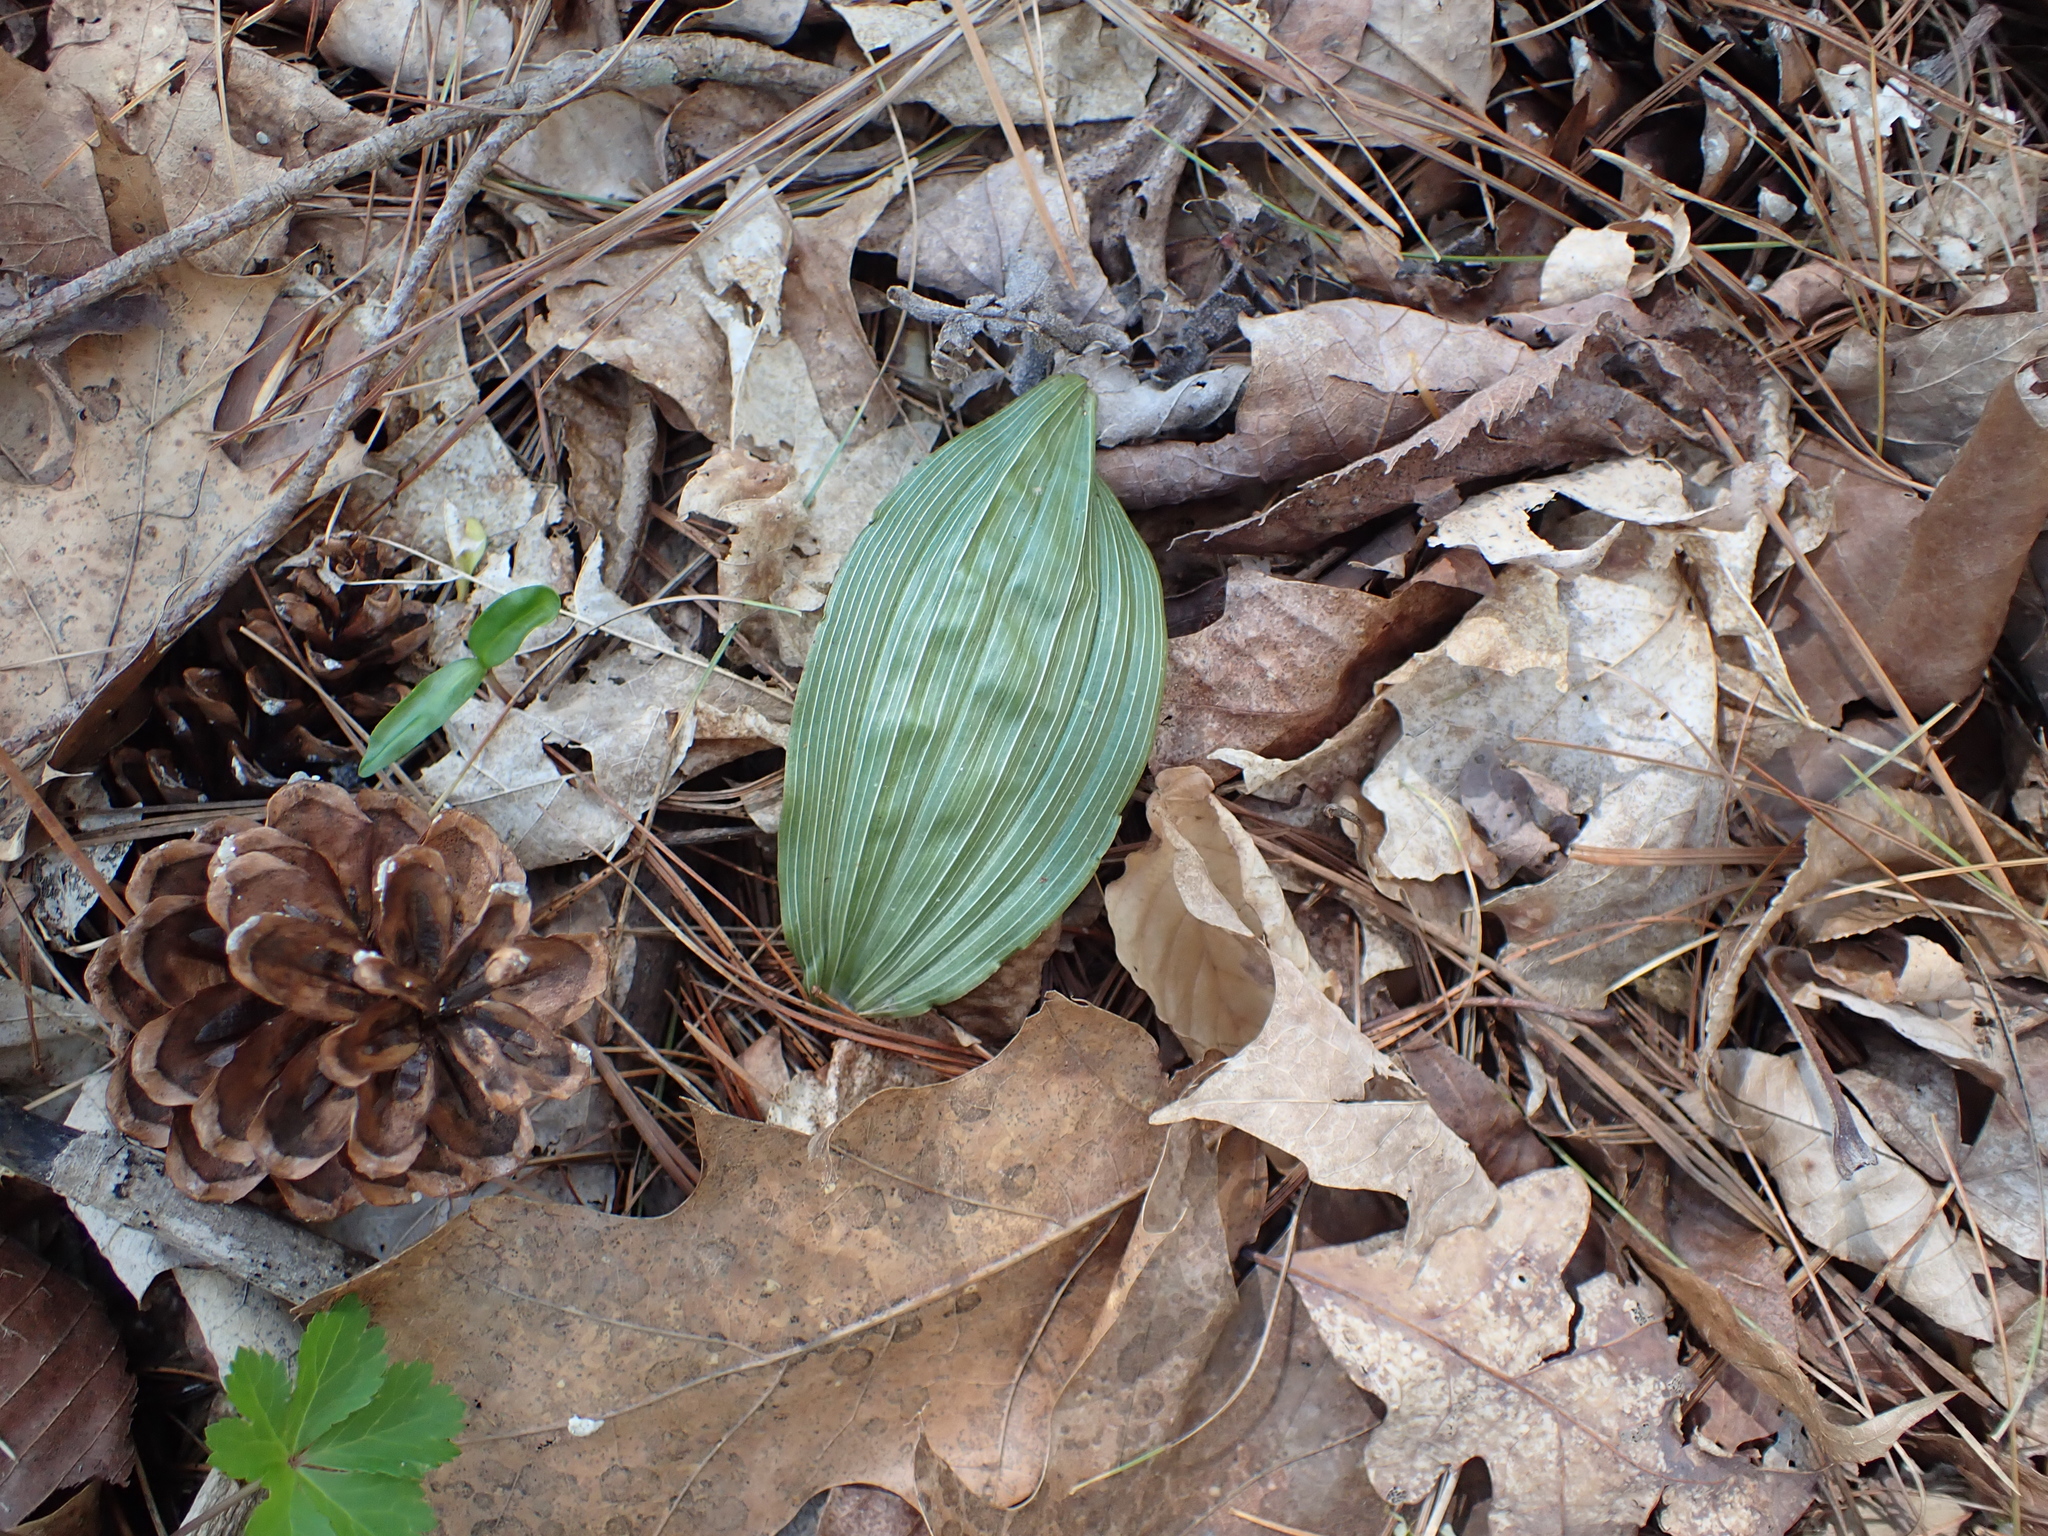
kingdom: Plantae
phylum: Tracheophyta
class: Liliopsida
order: Asparagales
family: Orchidaceae
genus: Aplectrum
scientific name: Aplectrum hyemale
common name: Adam-and-eve
